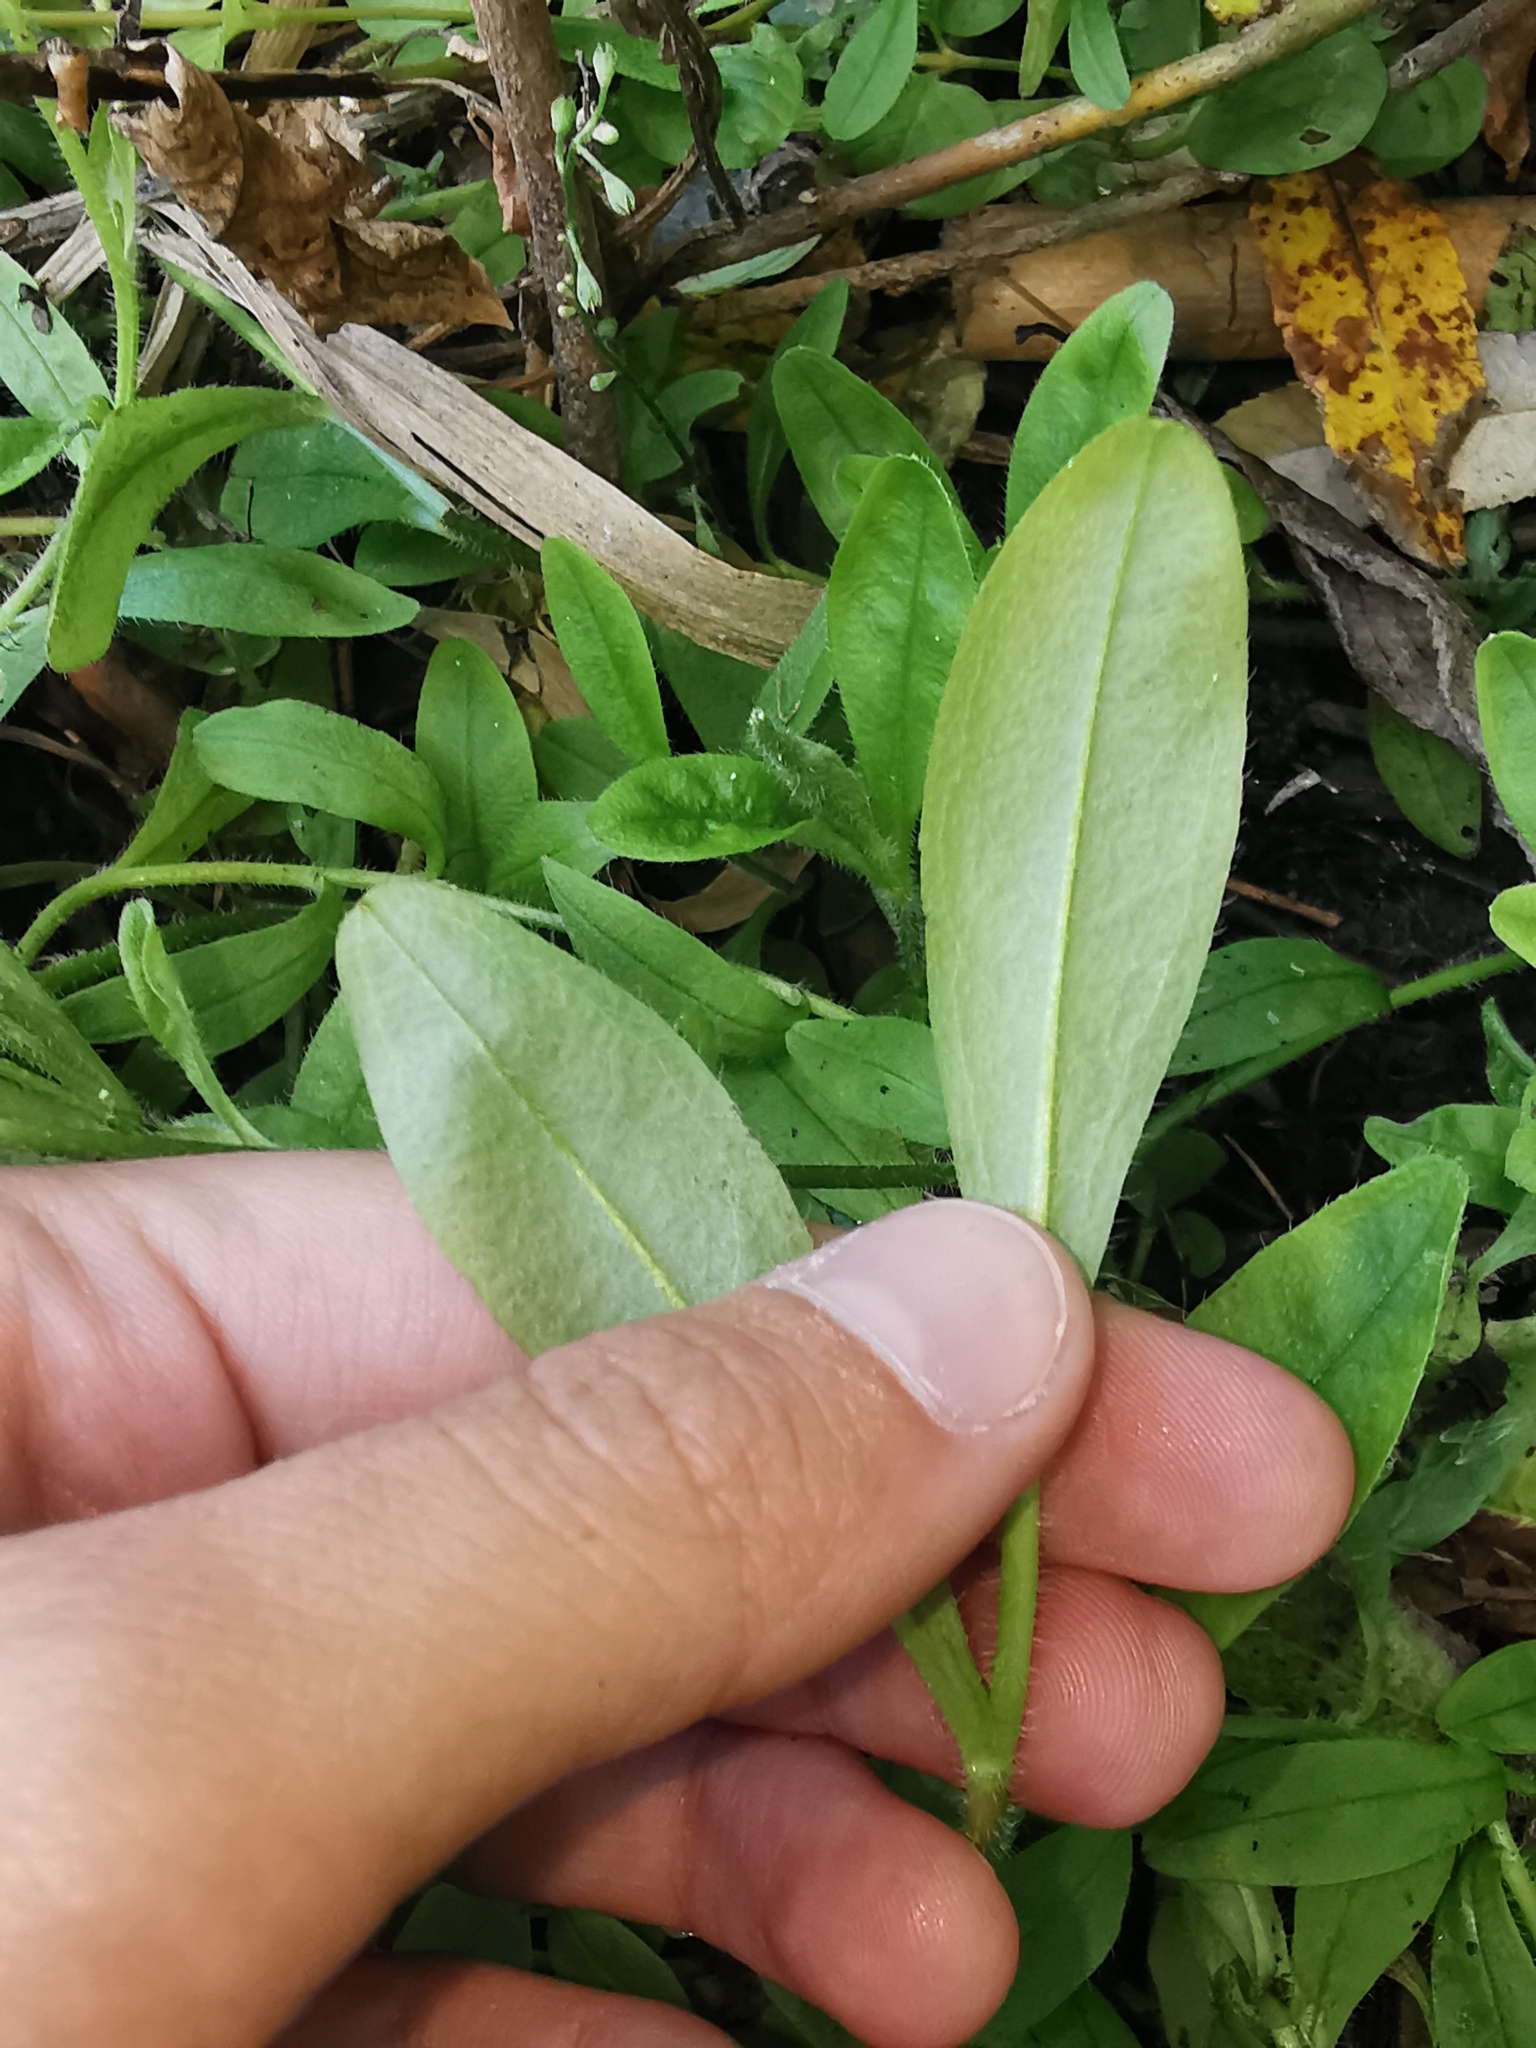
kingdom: Plantae
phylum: Tracheophyta
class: Magnoliopsida
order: Boraginales
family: Boraginaceae
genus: Myosotis
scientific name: Myosotis scorpioides
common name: Water forget-me-not
